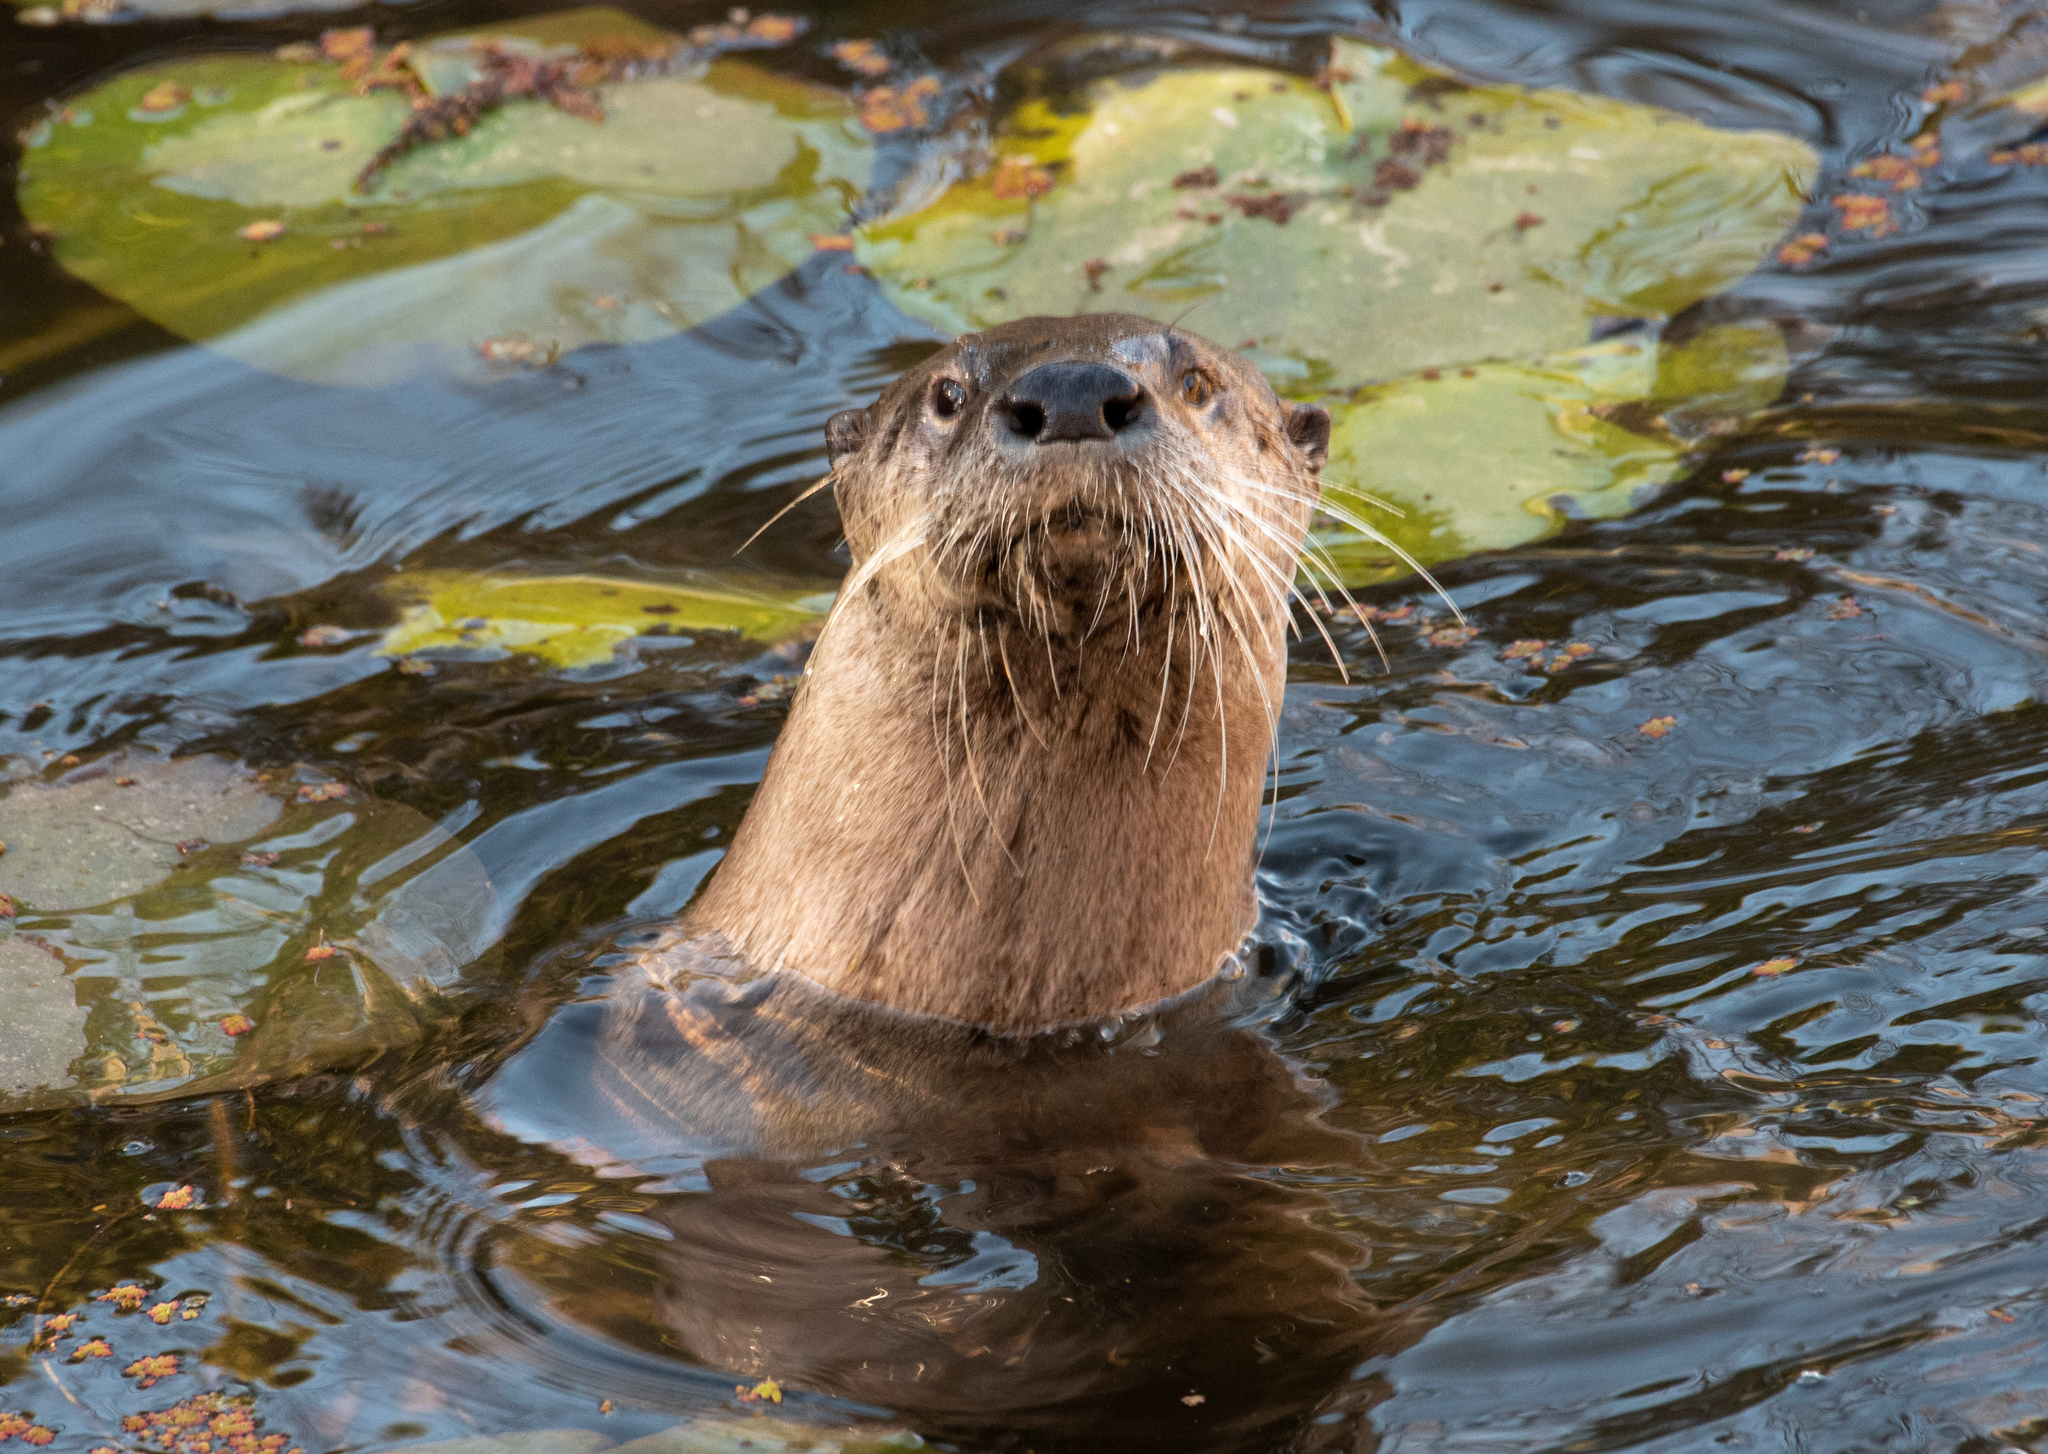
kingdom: Animalia
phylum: Chordata
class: Mammalia
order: Carnivora
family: Mustelidae
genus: Lontra
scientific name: Lontra canadensis
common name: North american river otter
